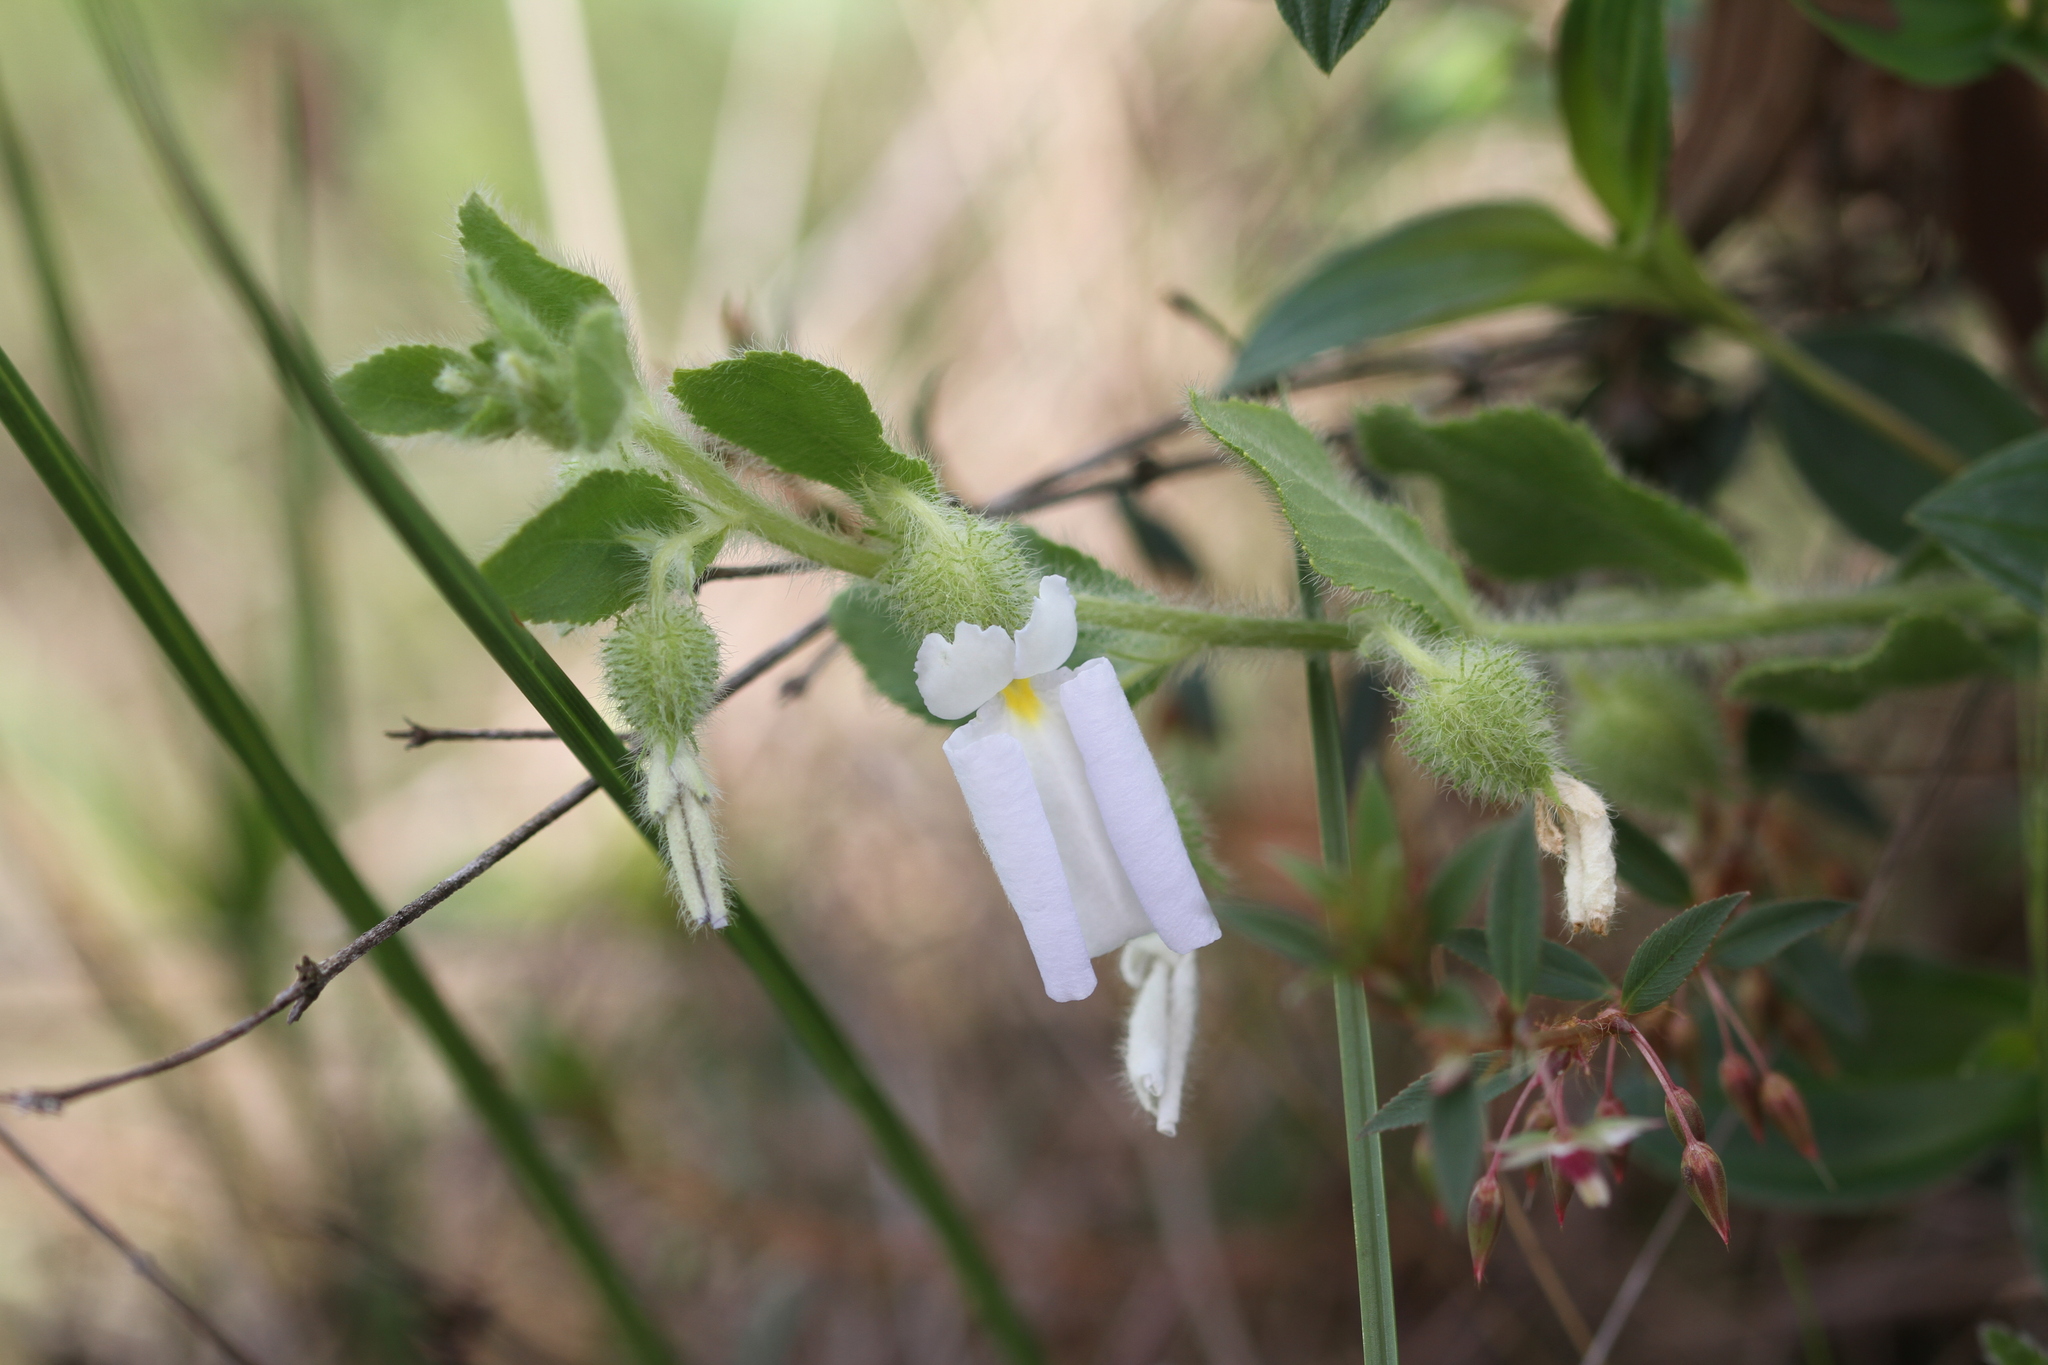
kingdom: Plantae
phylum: Tracheophyta
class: Magnoliopsida
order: Malpighiales
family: Violaceae
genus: Pombalia
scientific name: Pombalia calceolaria
